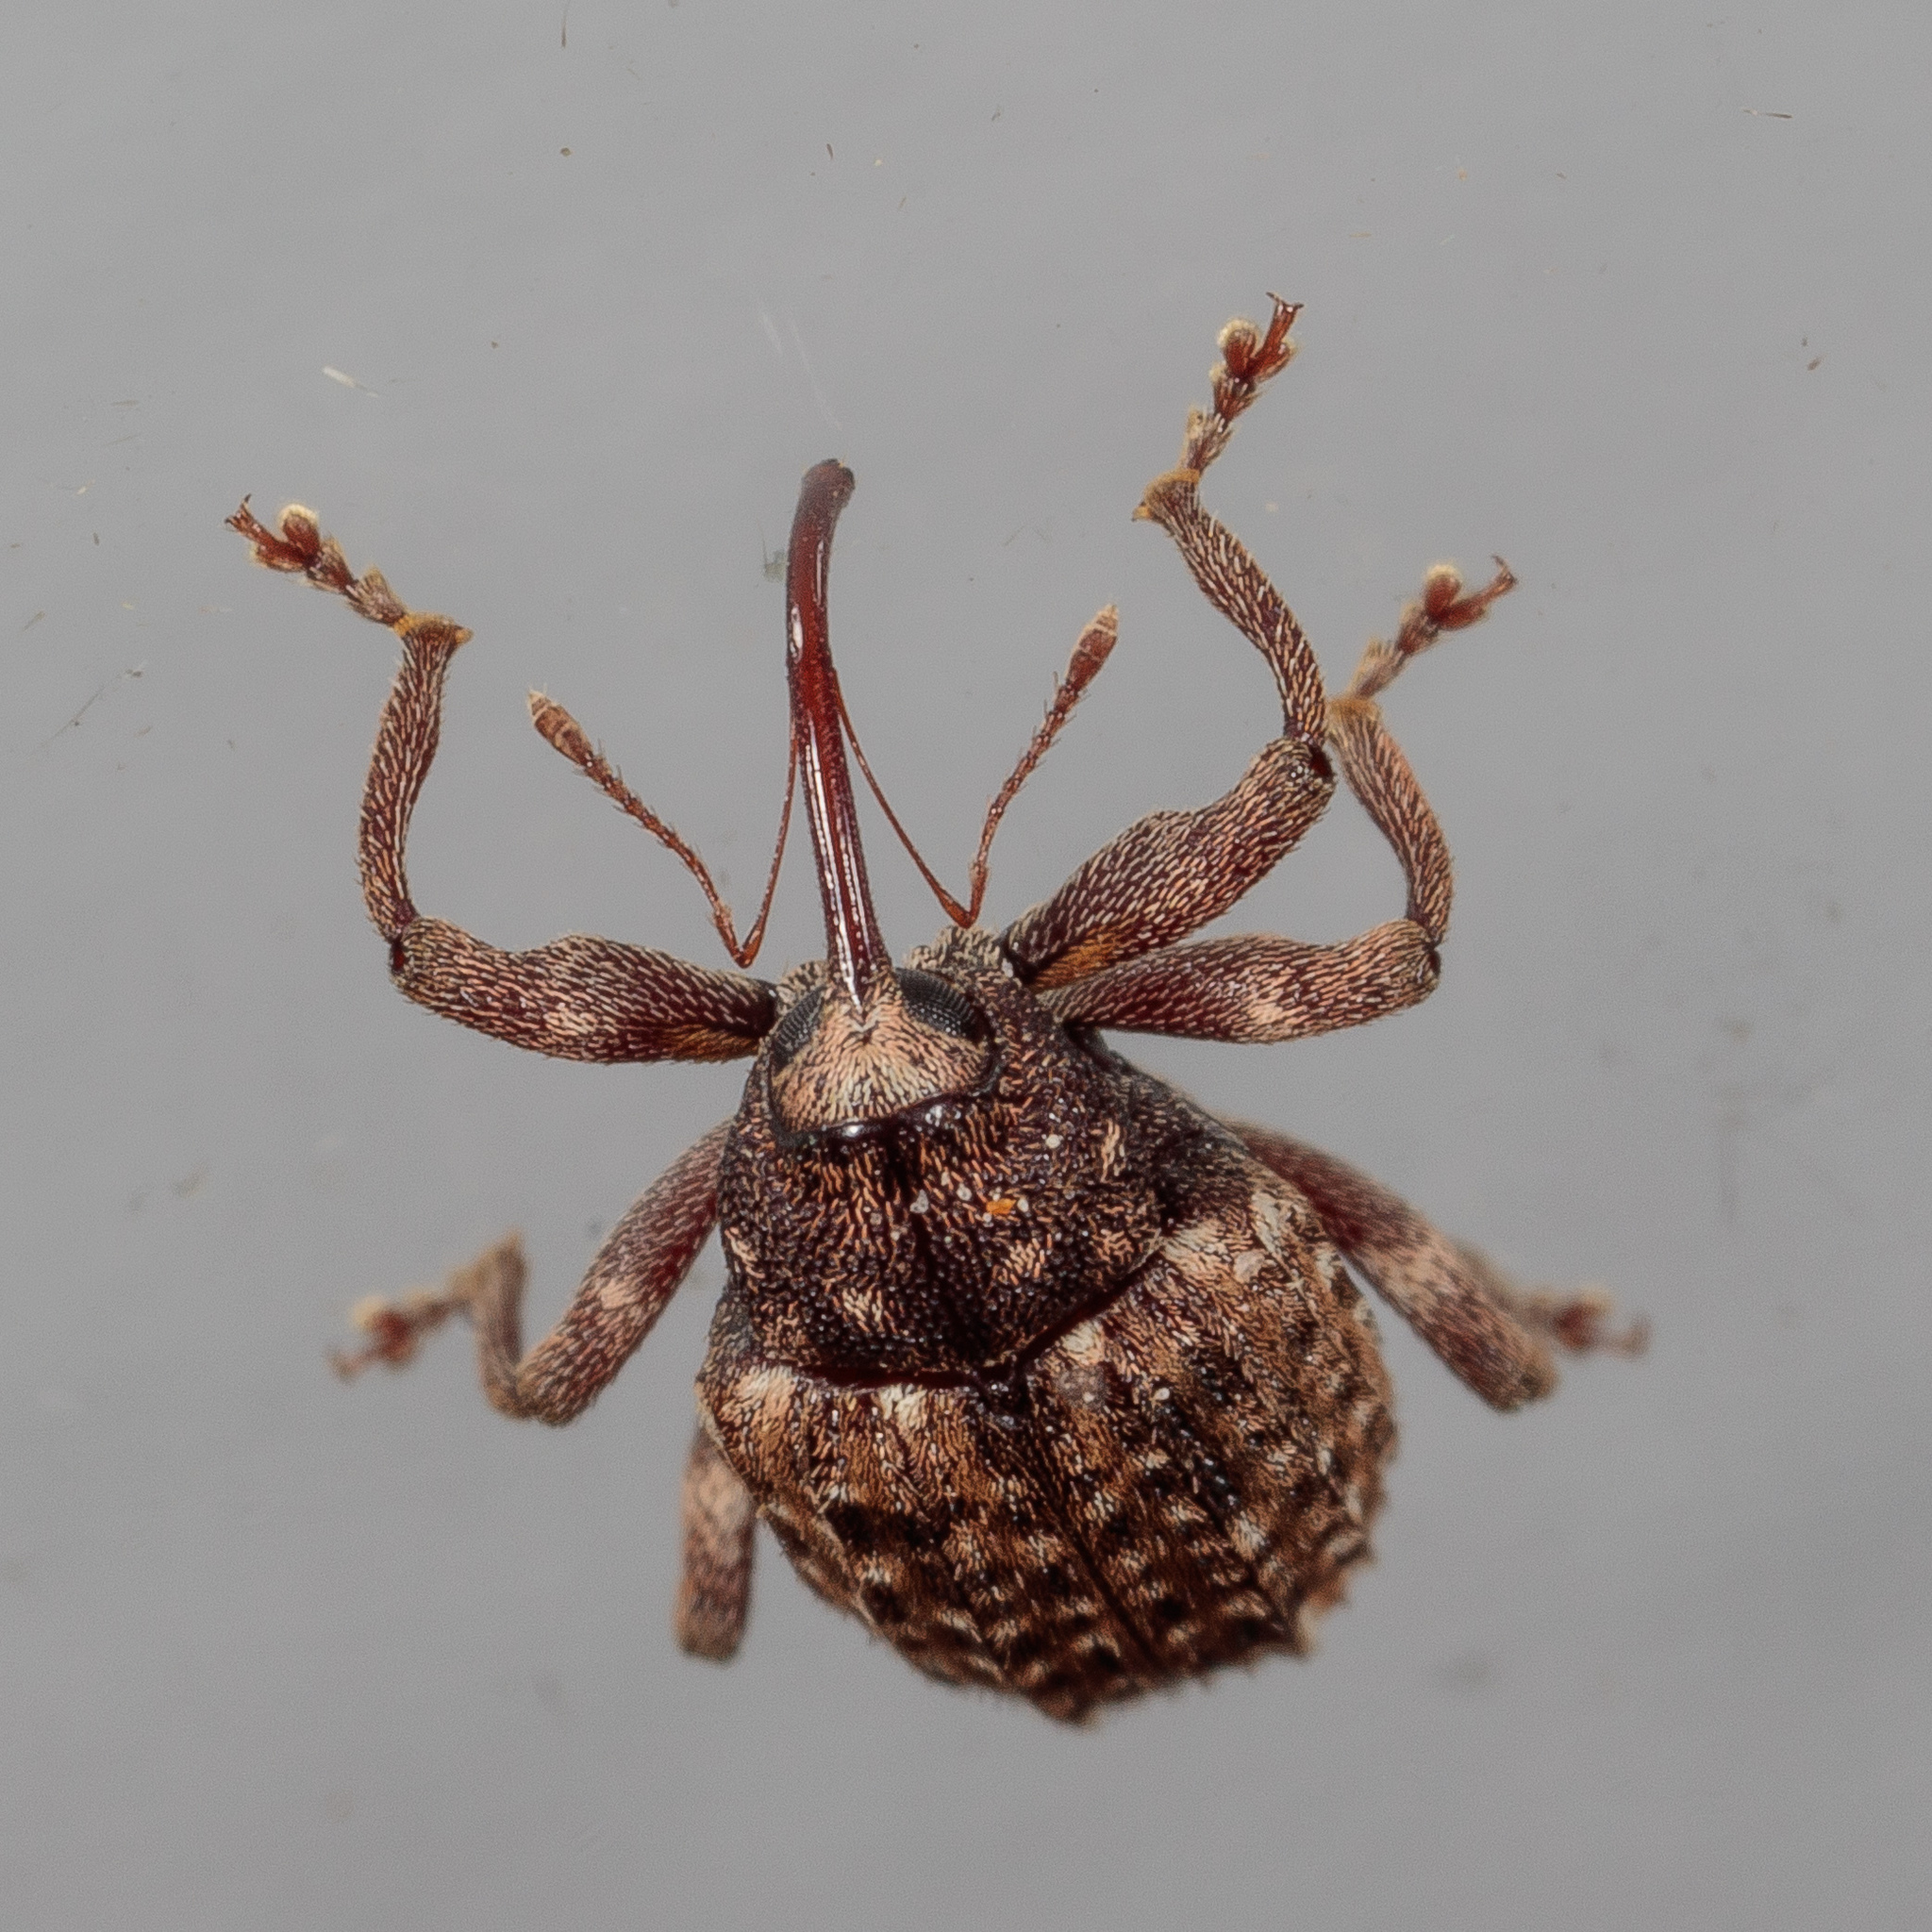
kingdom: Animalia
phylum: Arthropoda
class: Insecta
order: Coleoptera
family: Curculionidae
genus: Conotrachelus
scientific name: Conotrachelus naso
